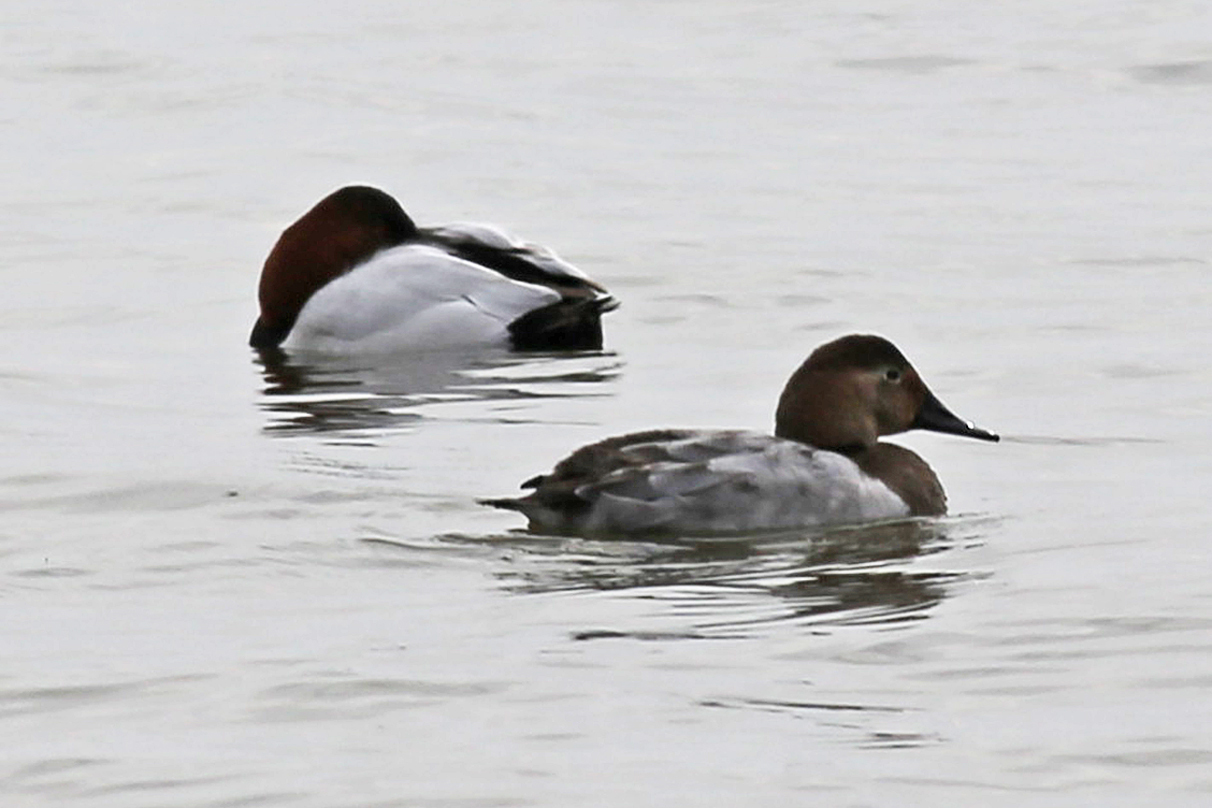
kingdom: Animalia
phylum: Chordata
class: Aves
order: Anseriformes
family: Anatidae
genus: Aythya
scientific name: Aythya valisineria
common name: Canvasback
